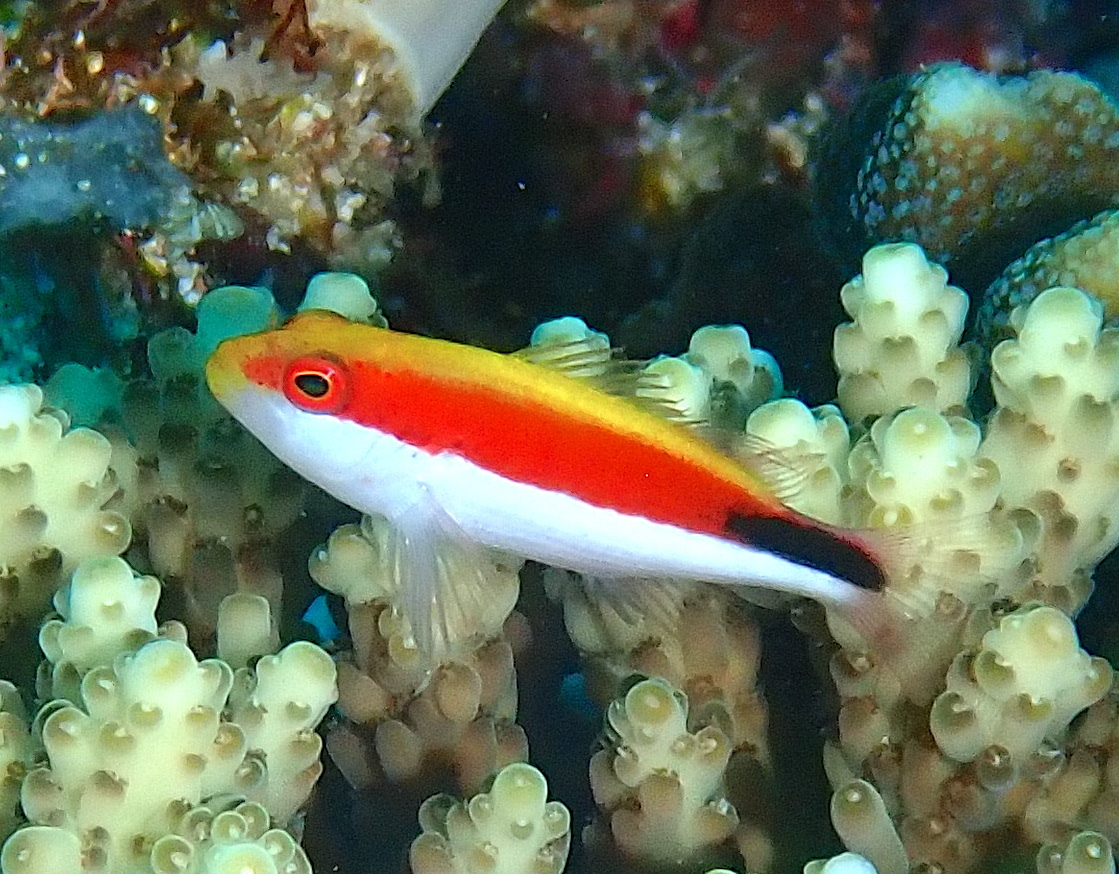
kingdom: Animalia
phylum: Chordata
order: Perciformes
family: Cirrhitidae
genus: Paracirrhites
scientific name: Paracirrhites forsteri
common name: Freckled hawkfish
